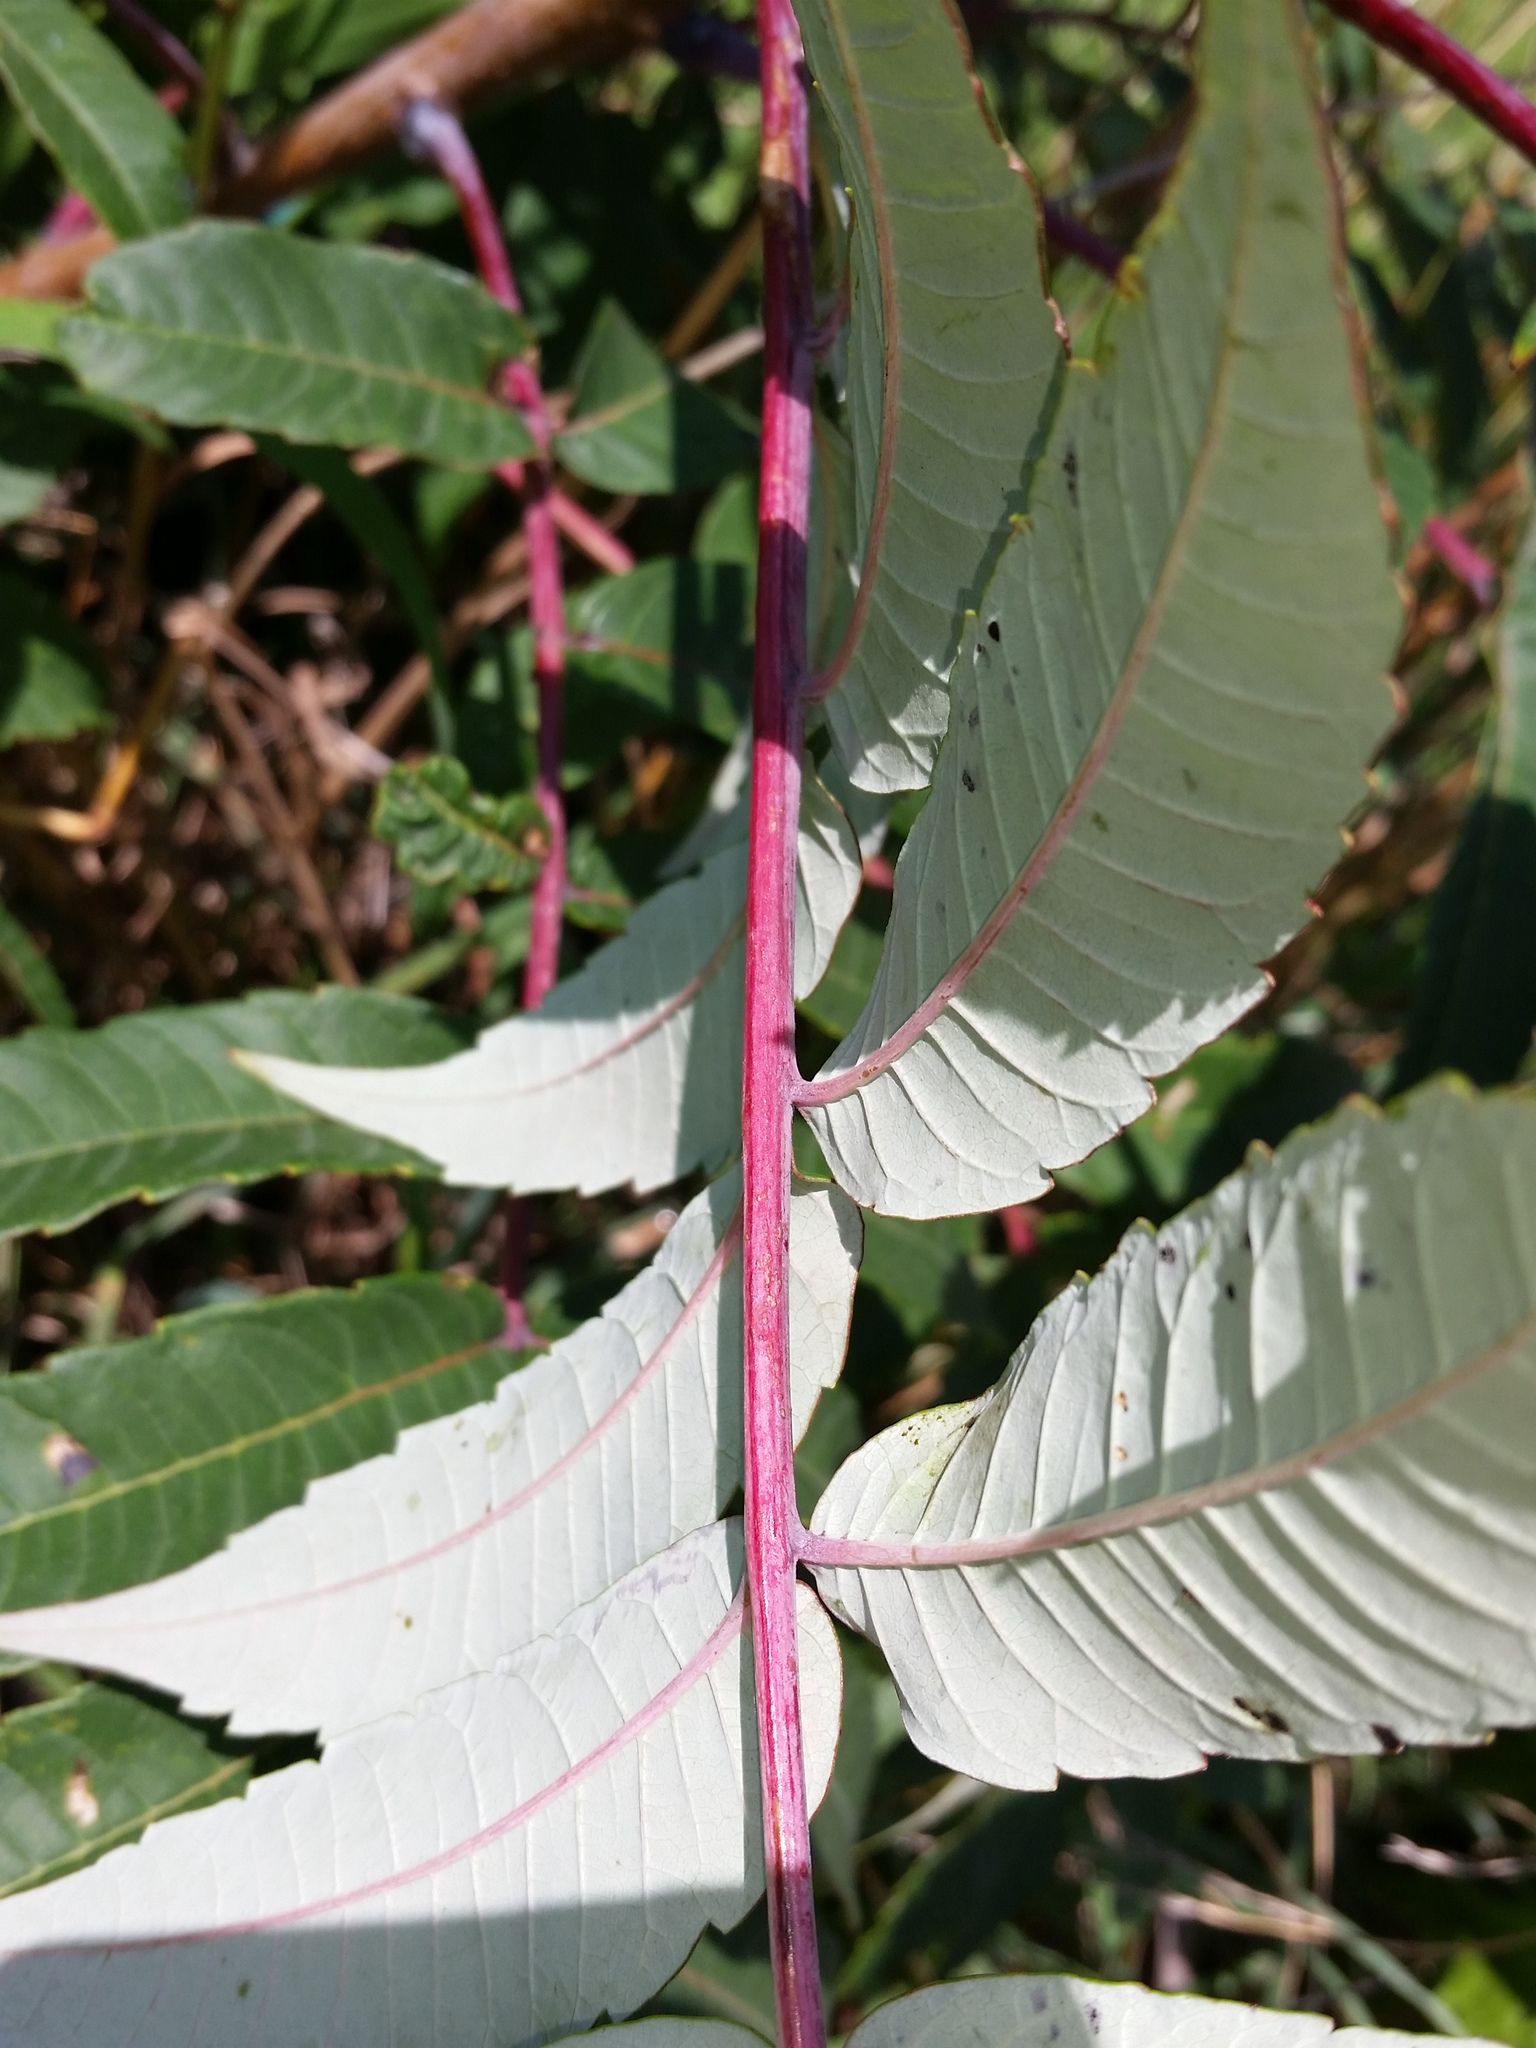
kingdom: Plantae
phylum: Tracheophyta
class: Magnoliopsida
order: Sapindales
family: Anacardiaceae
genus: Rhus
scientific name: Rhus glabra
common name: Scarlet sumac
